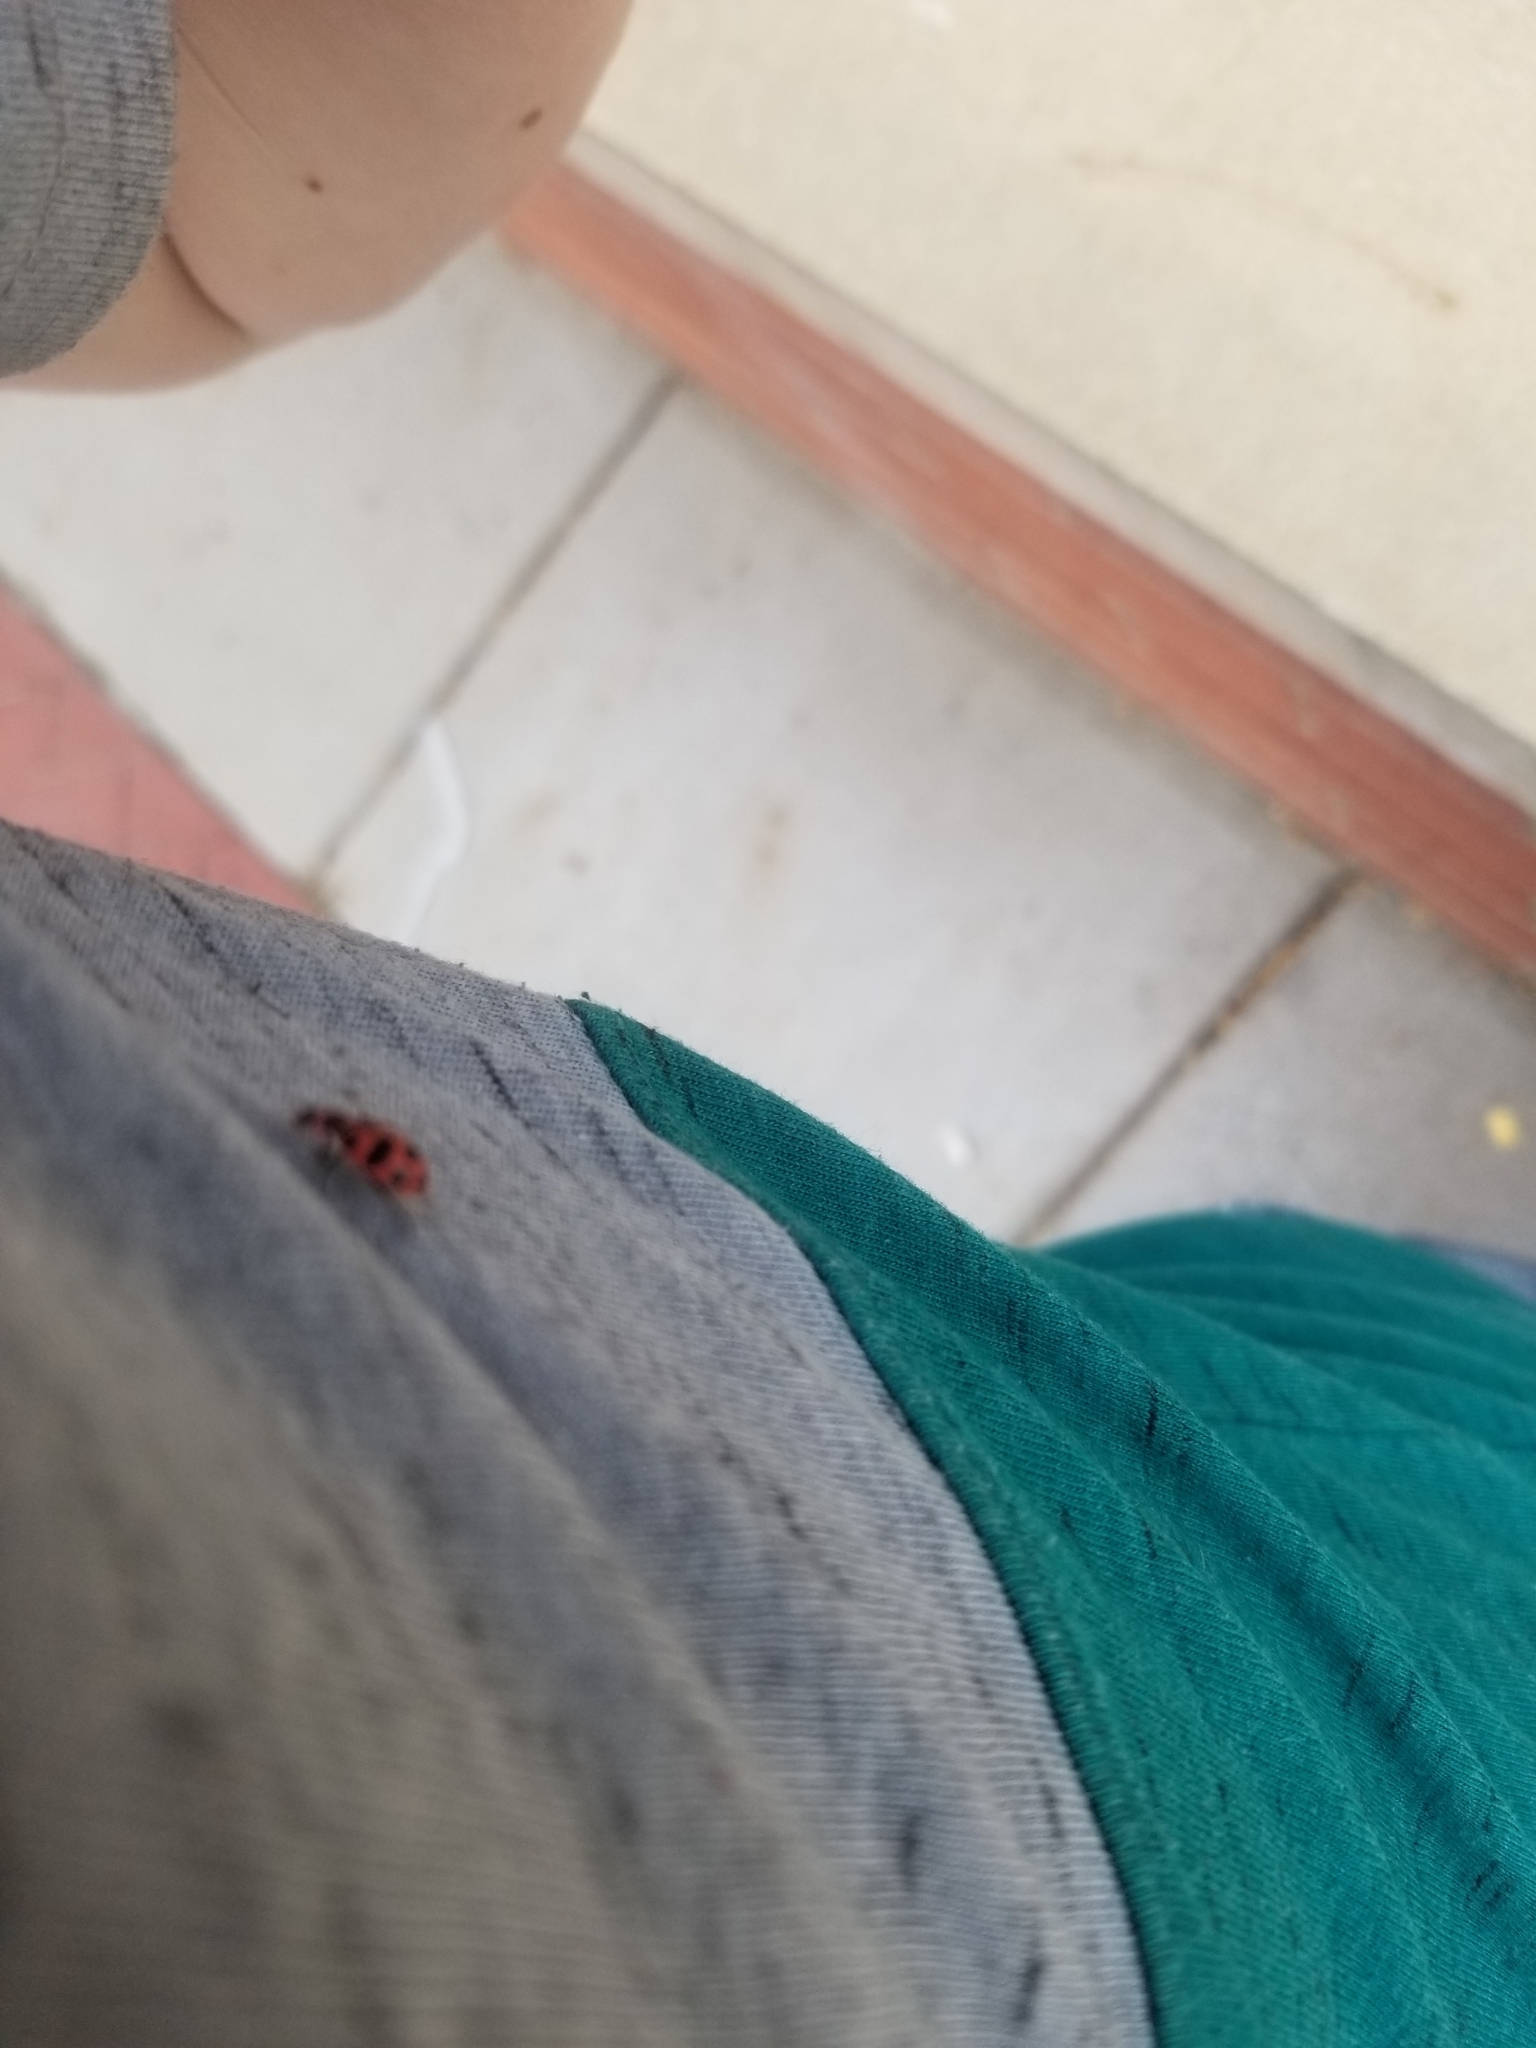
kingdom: Animalia
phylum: Arthropoda
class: Insecta
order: Coleoptera
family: Coccinellidae
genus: Coleomegilla
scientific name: Coleomegilla maculata
